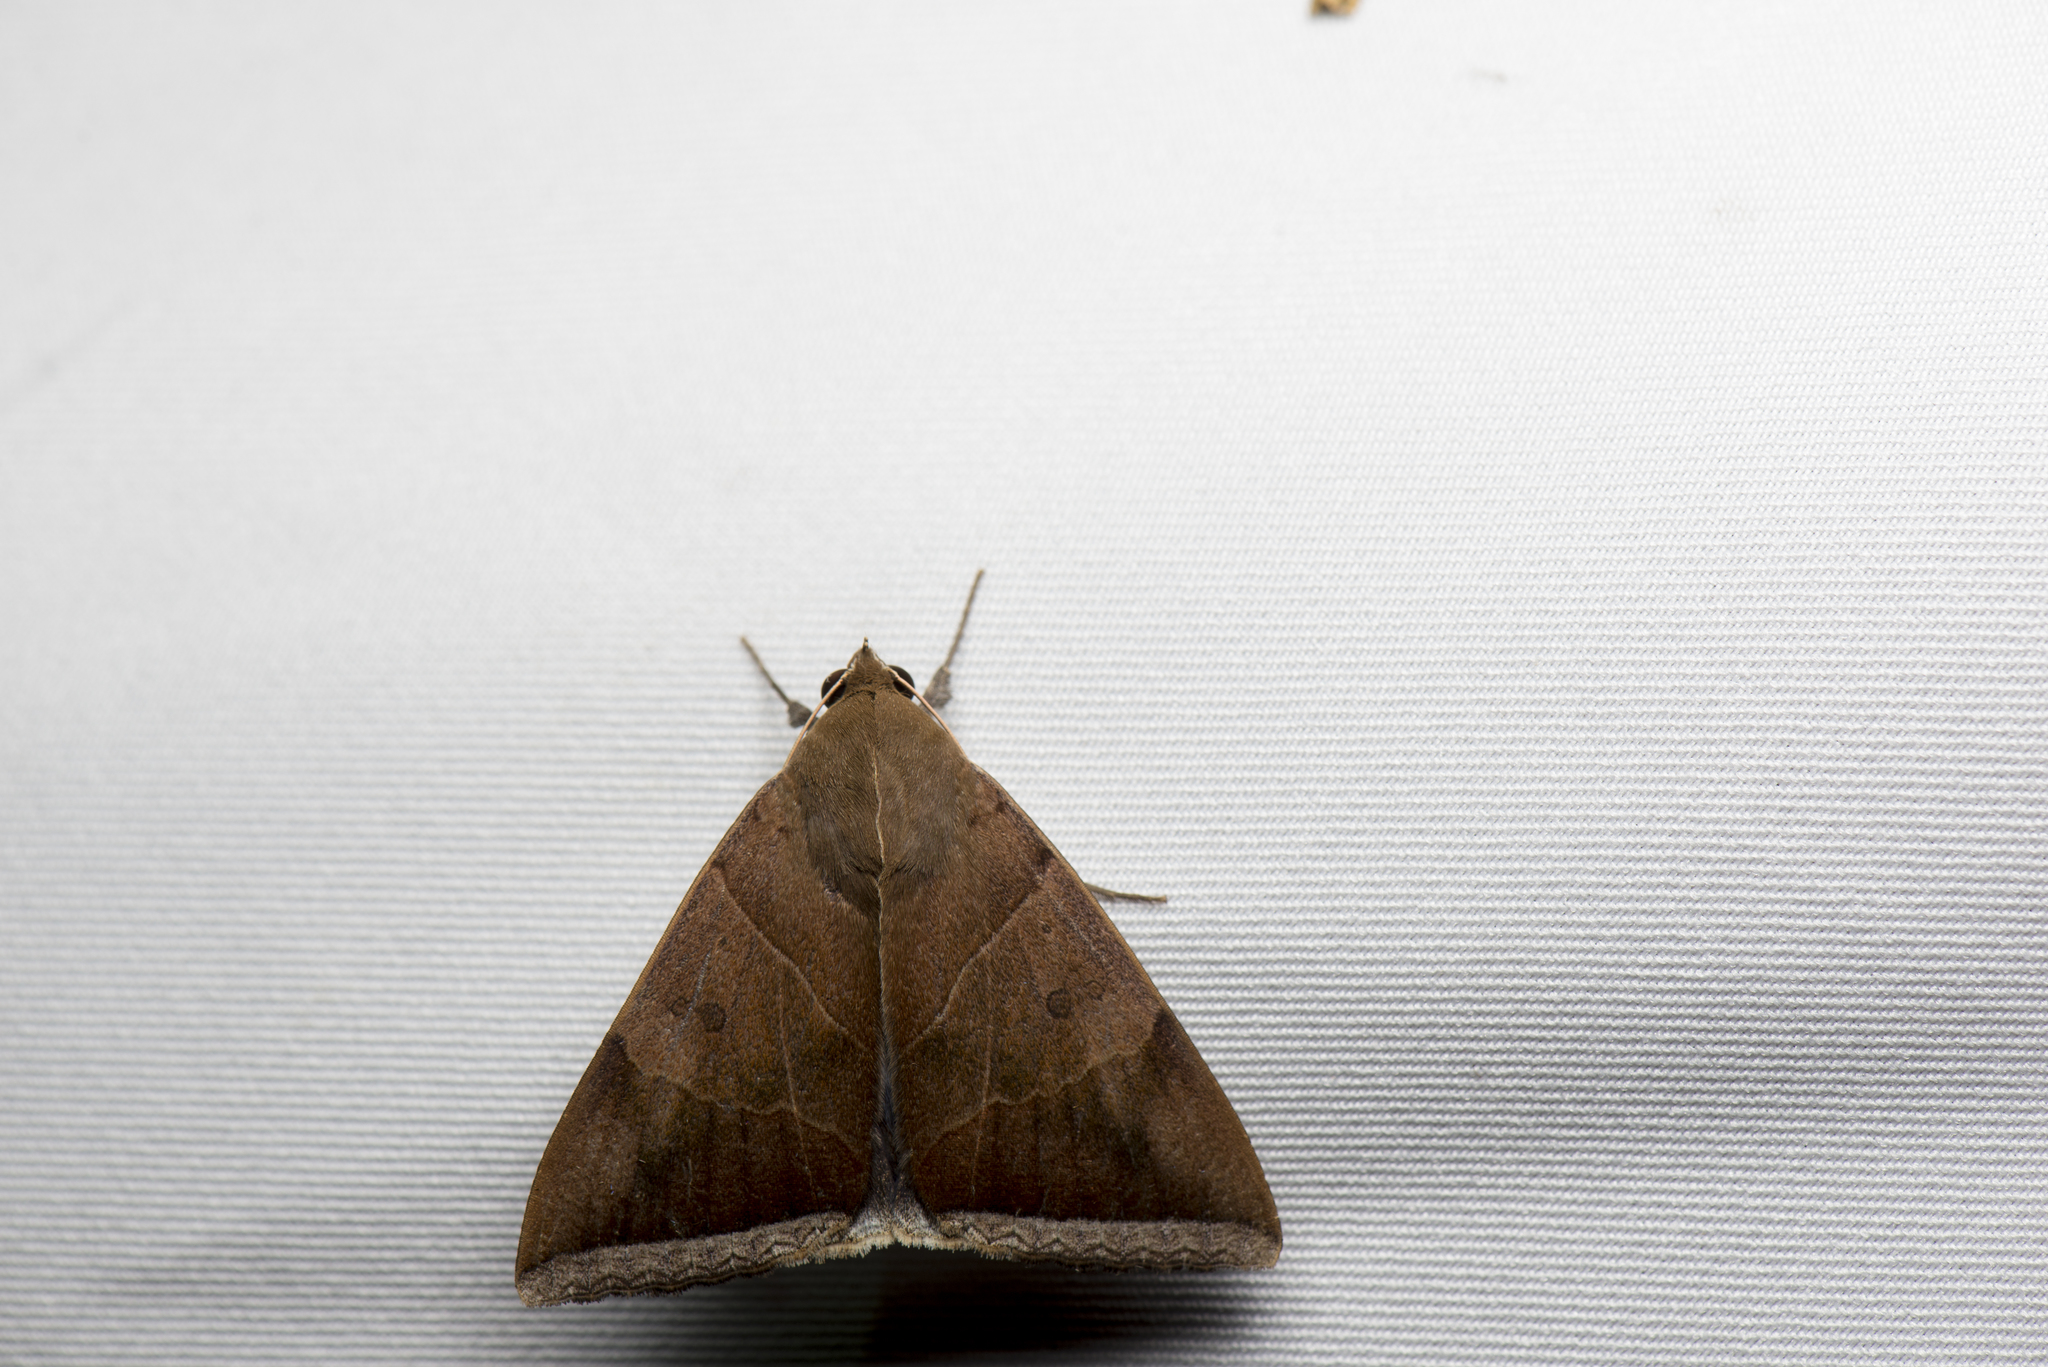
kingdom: Animalia
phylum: Arthropoda
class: Insecta
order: Lepidoptera
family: Erebidae
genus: Artena
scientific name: Artena dotata
